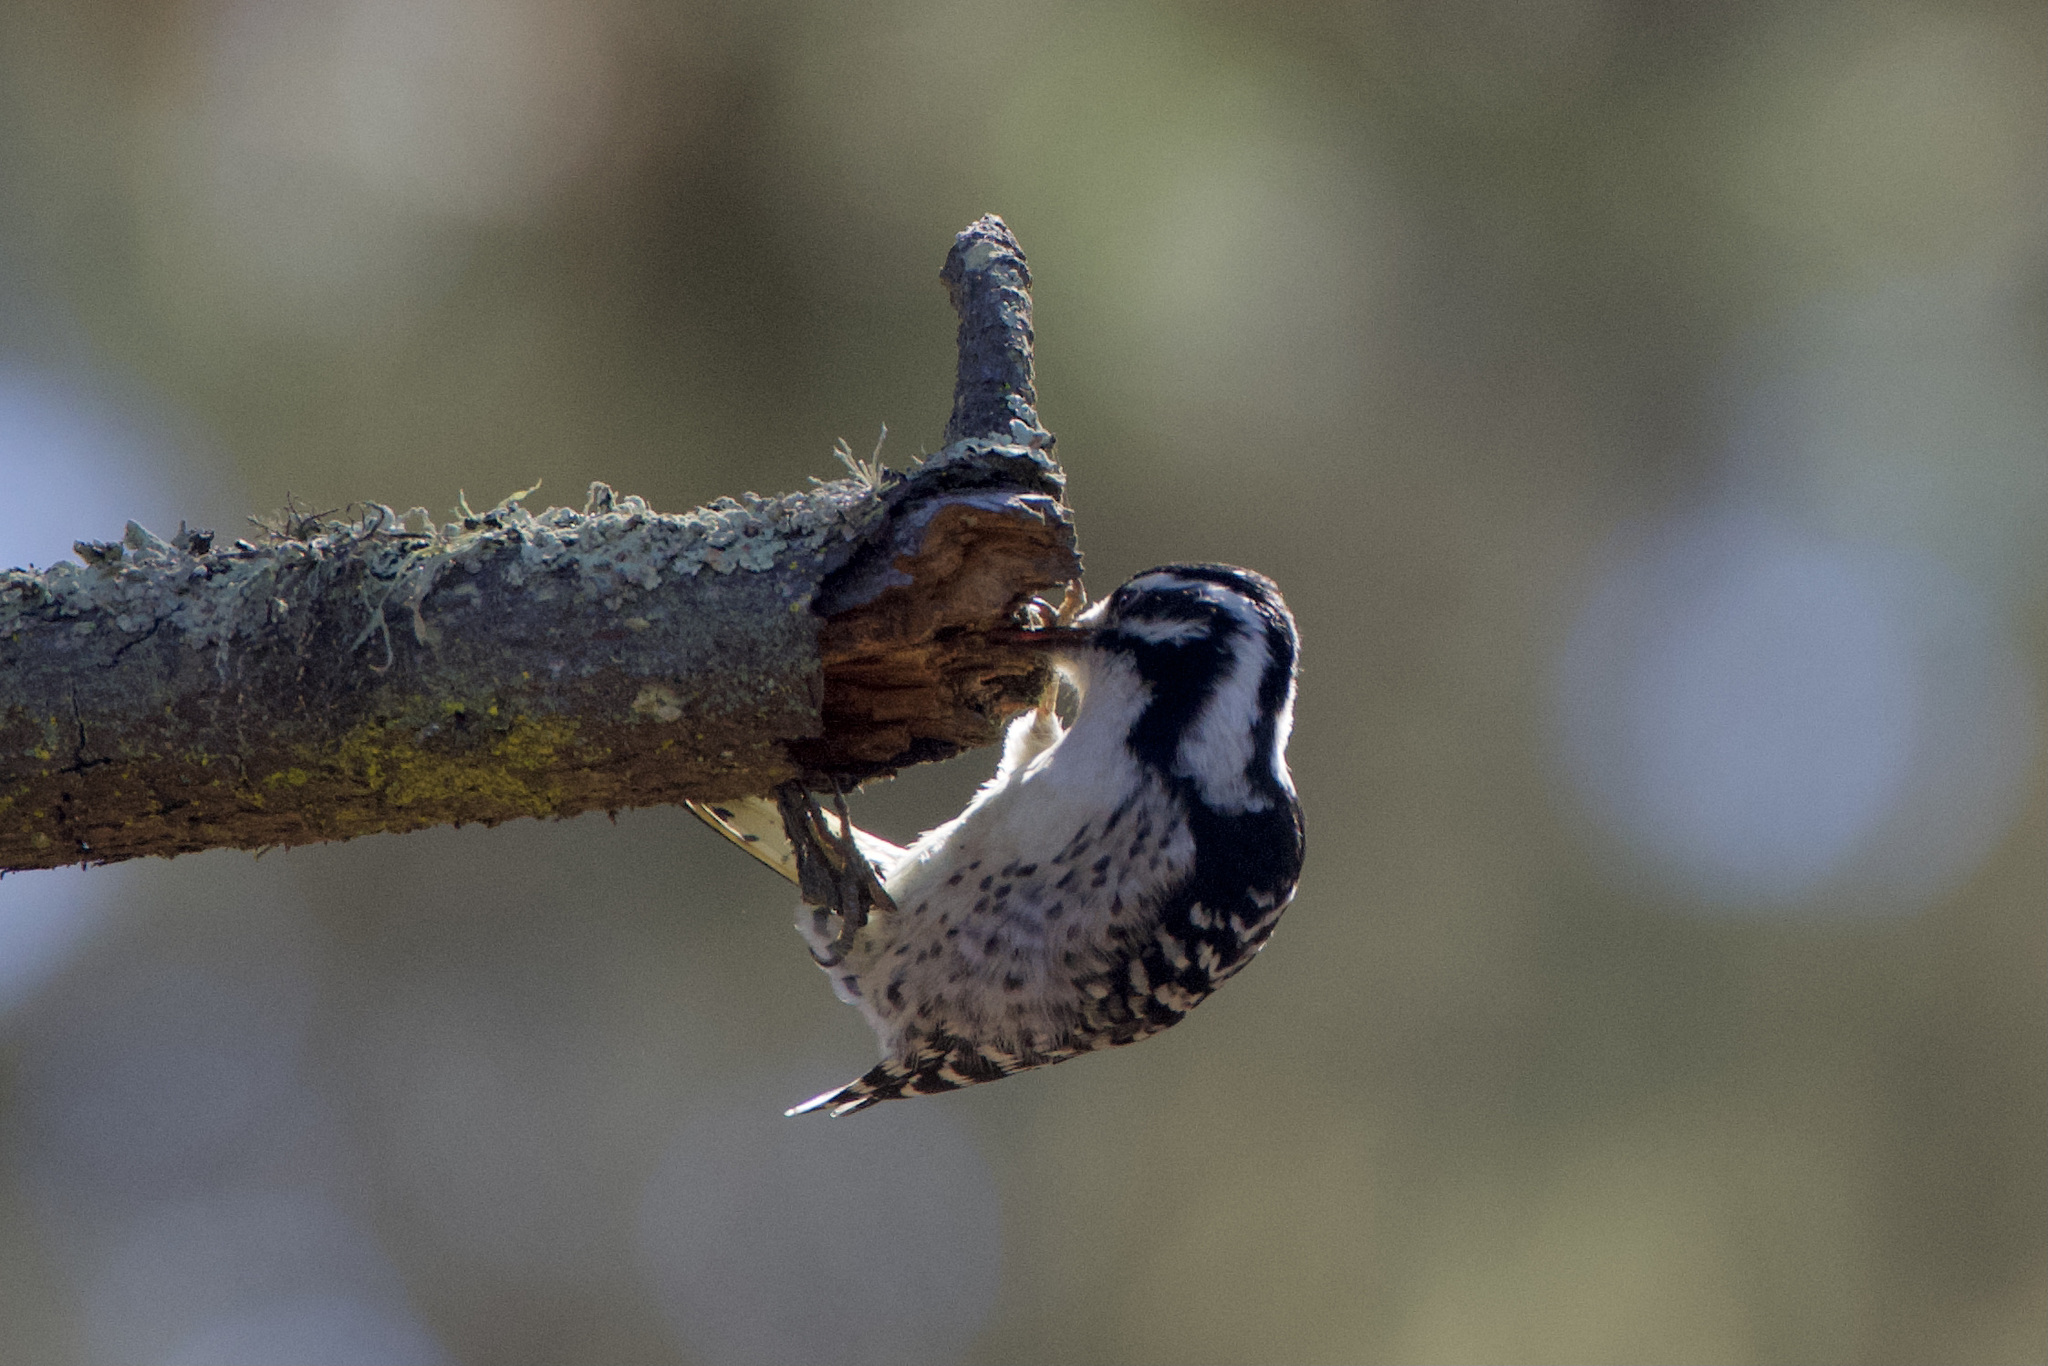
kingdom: Animalia
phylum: Chordata
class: Aves
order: Piciformes
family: Picidae
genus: Dryobates
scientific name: Dryobates nuttallii
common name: Nuttall's woodpecker
